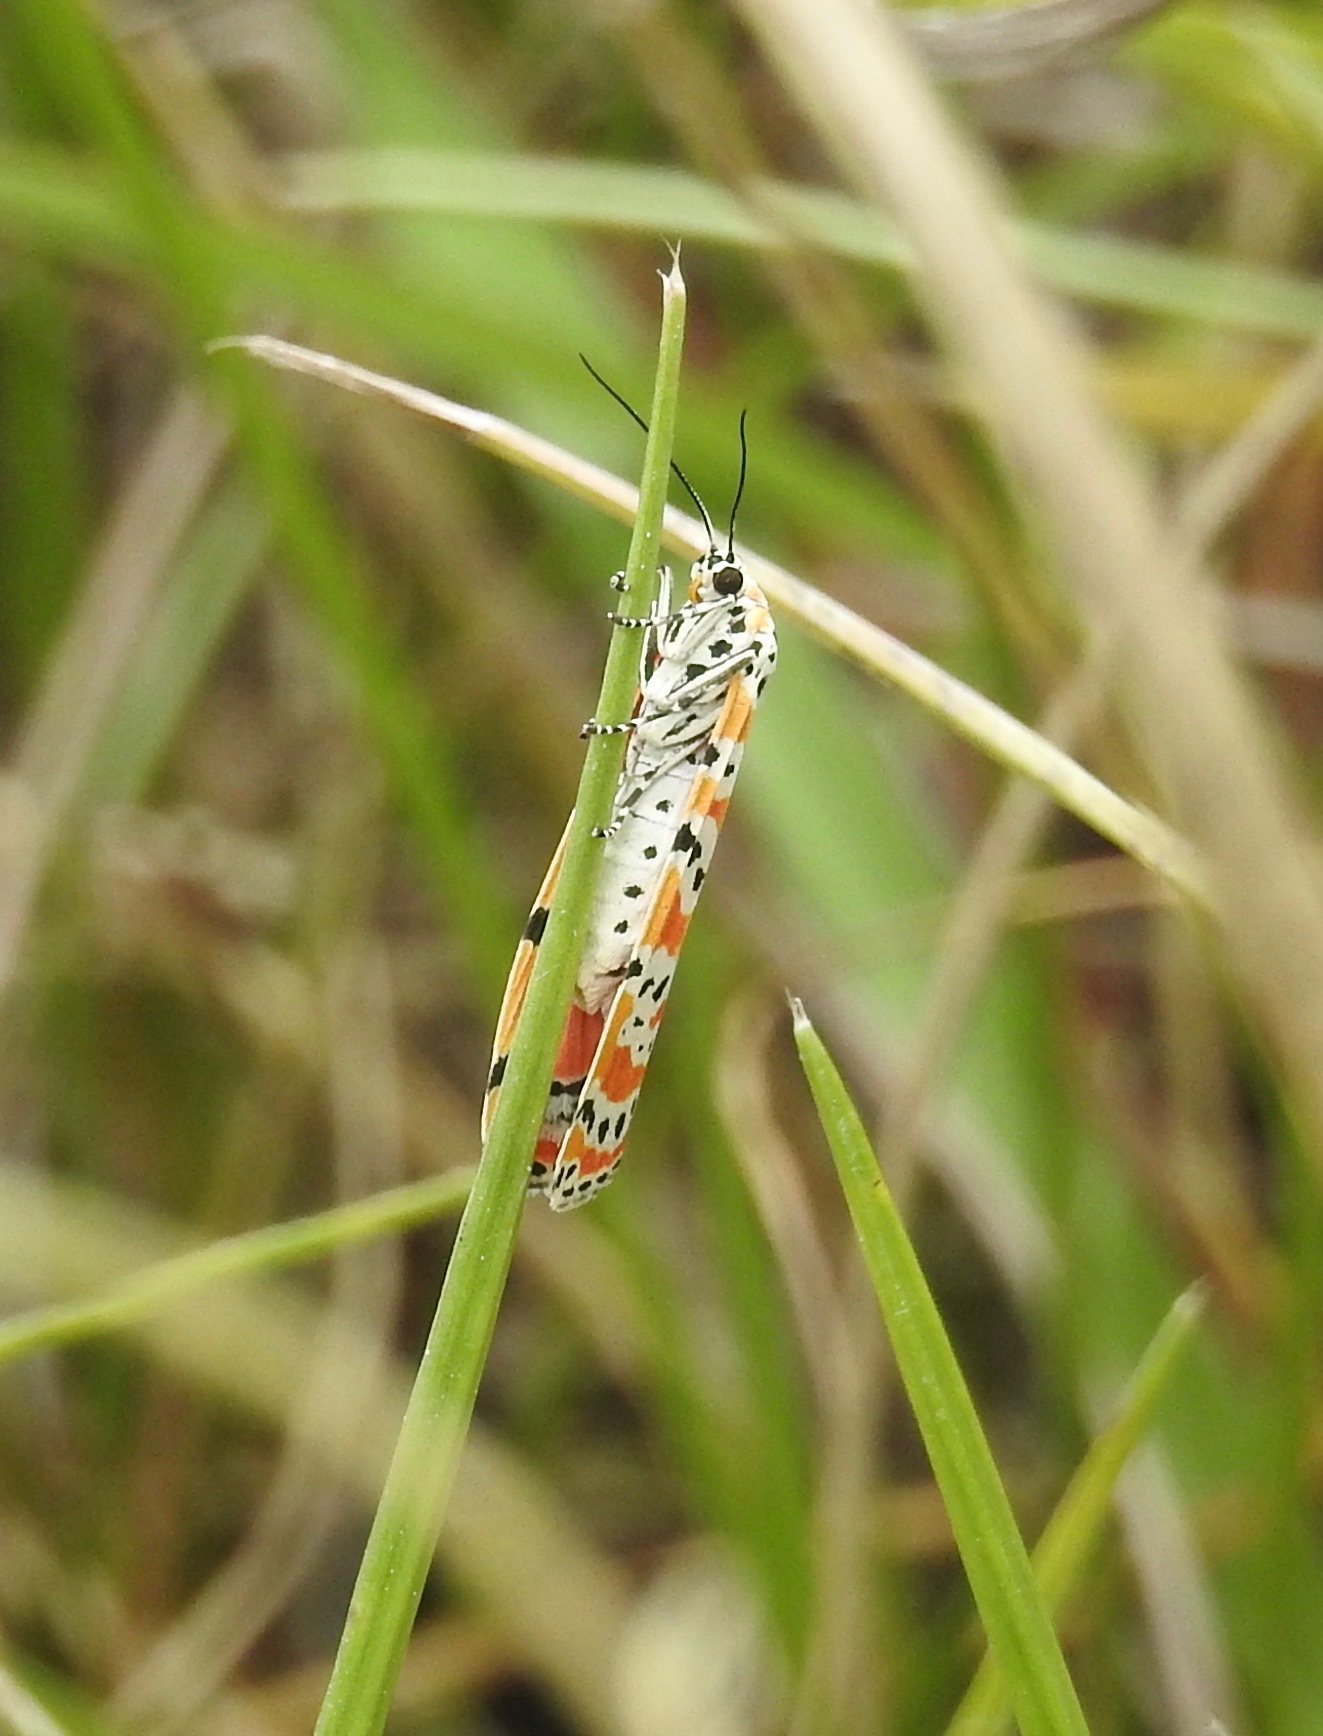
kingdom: Animalia
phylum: Arthropoda
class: Insecta
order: Lepidoptera
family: Erebidae
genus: Utetheisa
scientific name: Utetheisa ornatrix
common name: Beautiful utetheisa
